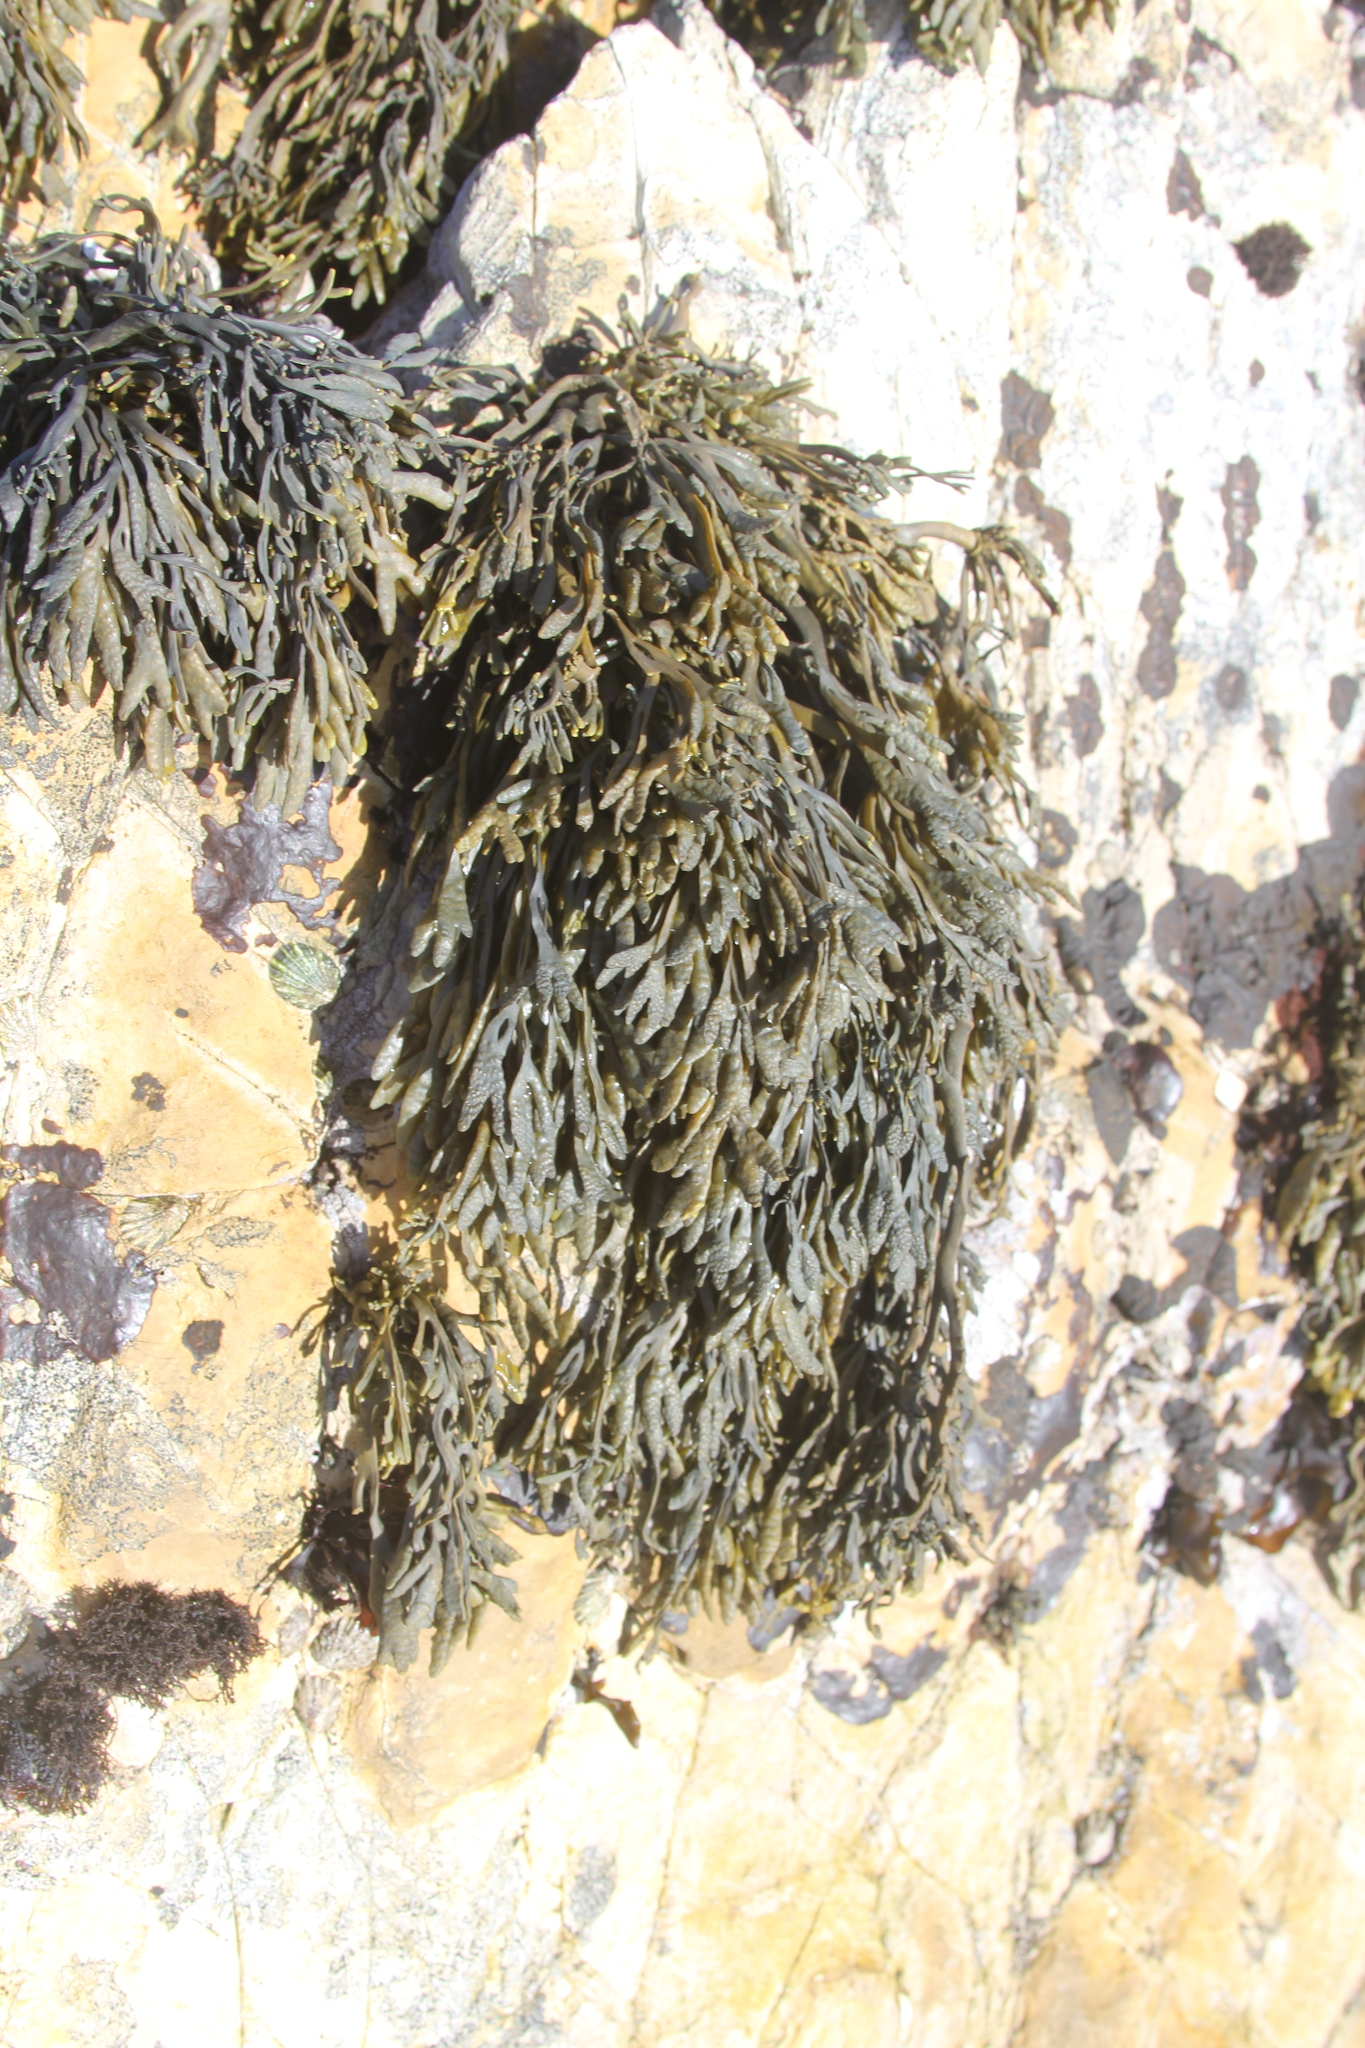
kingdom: Chromista
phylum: Ochrophyta
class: Phaeophyceae
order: Fucales
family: Fucaceae
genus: Silvetia
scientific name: Silvetia
